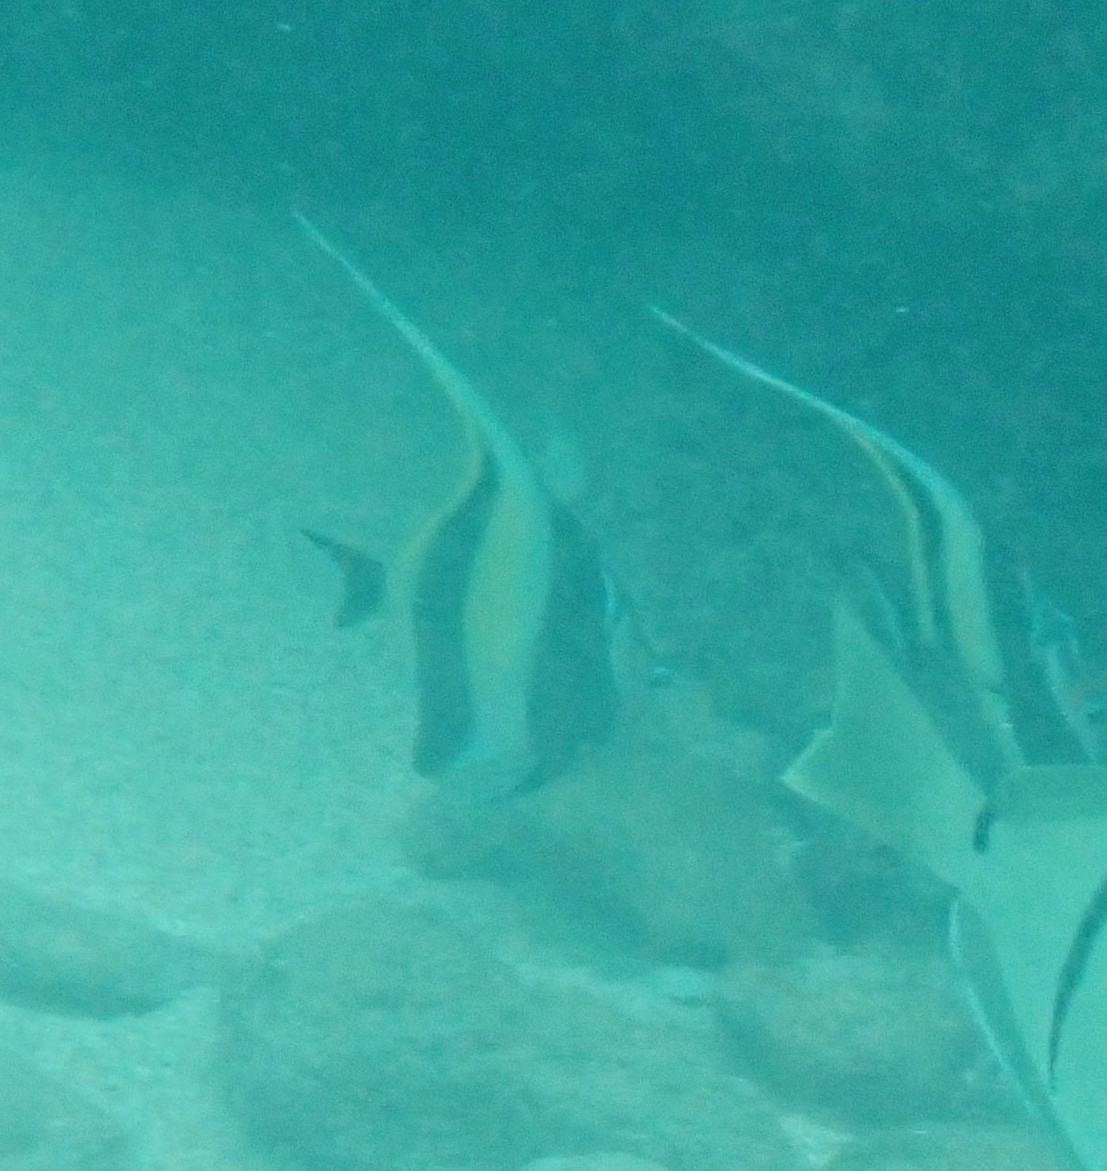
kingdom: Animalia
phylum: Chordata
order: Perciformes
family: Zanclidae
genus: Zanclus
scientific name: Zanclus cornutus
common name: Moorish idol
